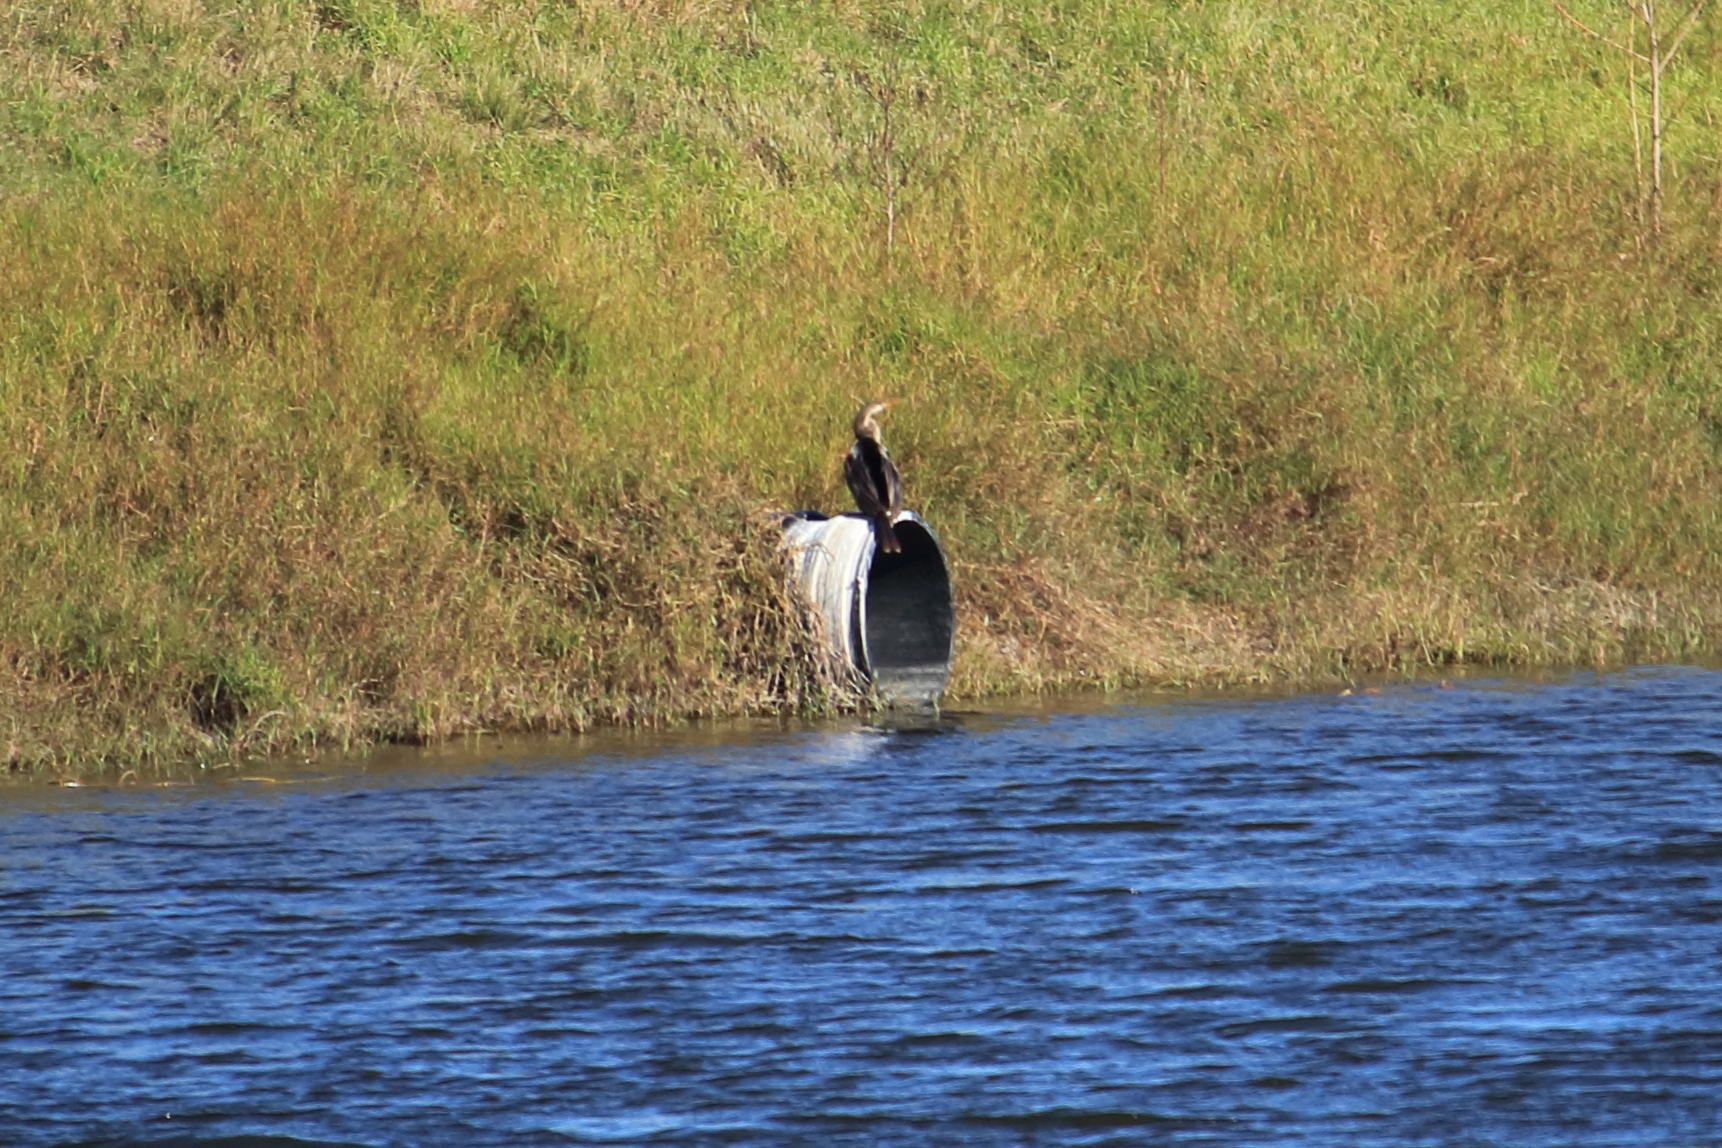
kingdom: Animalia
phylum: Chordata
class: Aves
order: Suliformes
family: Anhingidae
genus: Anhinga
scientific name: Anhinga anhinga
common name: Anhinga
